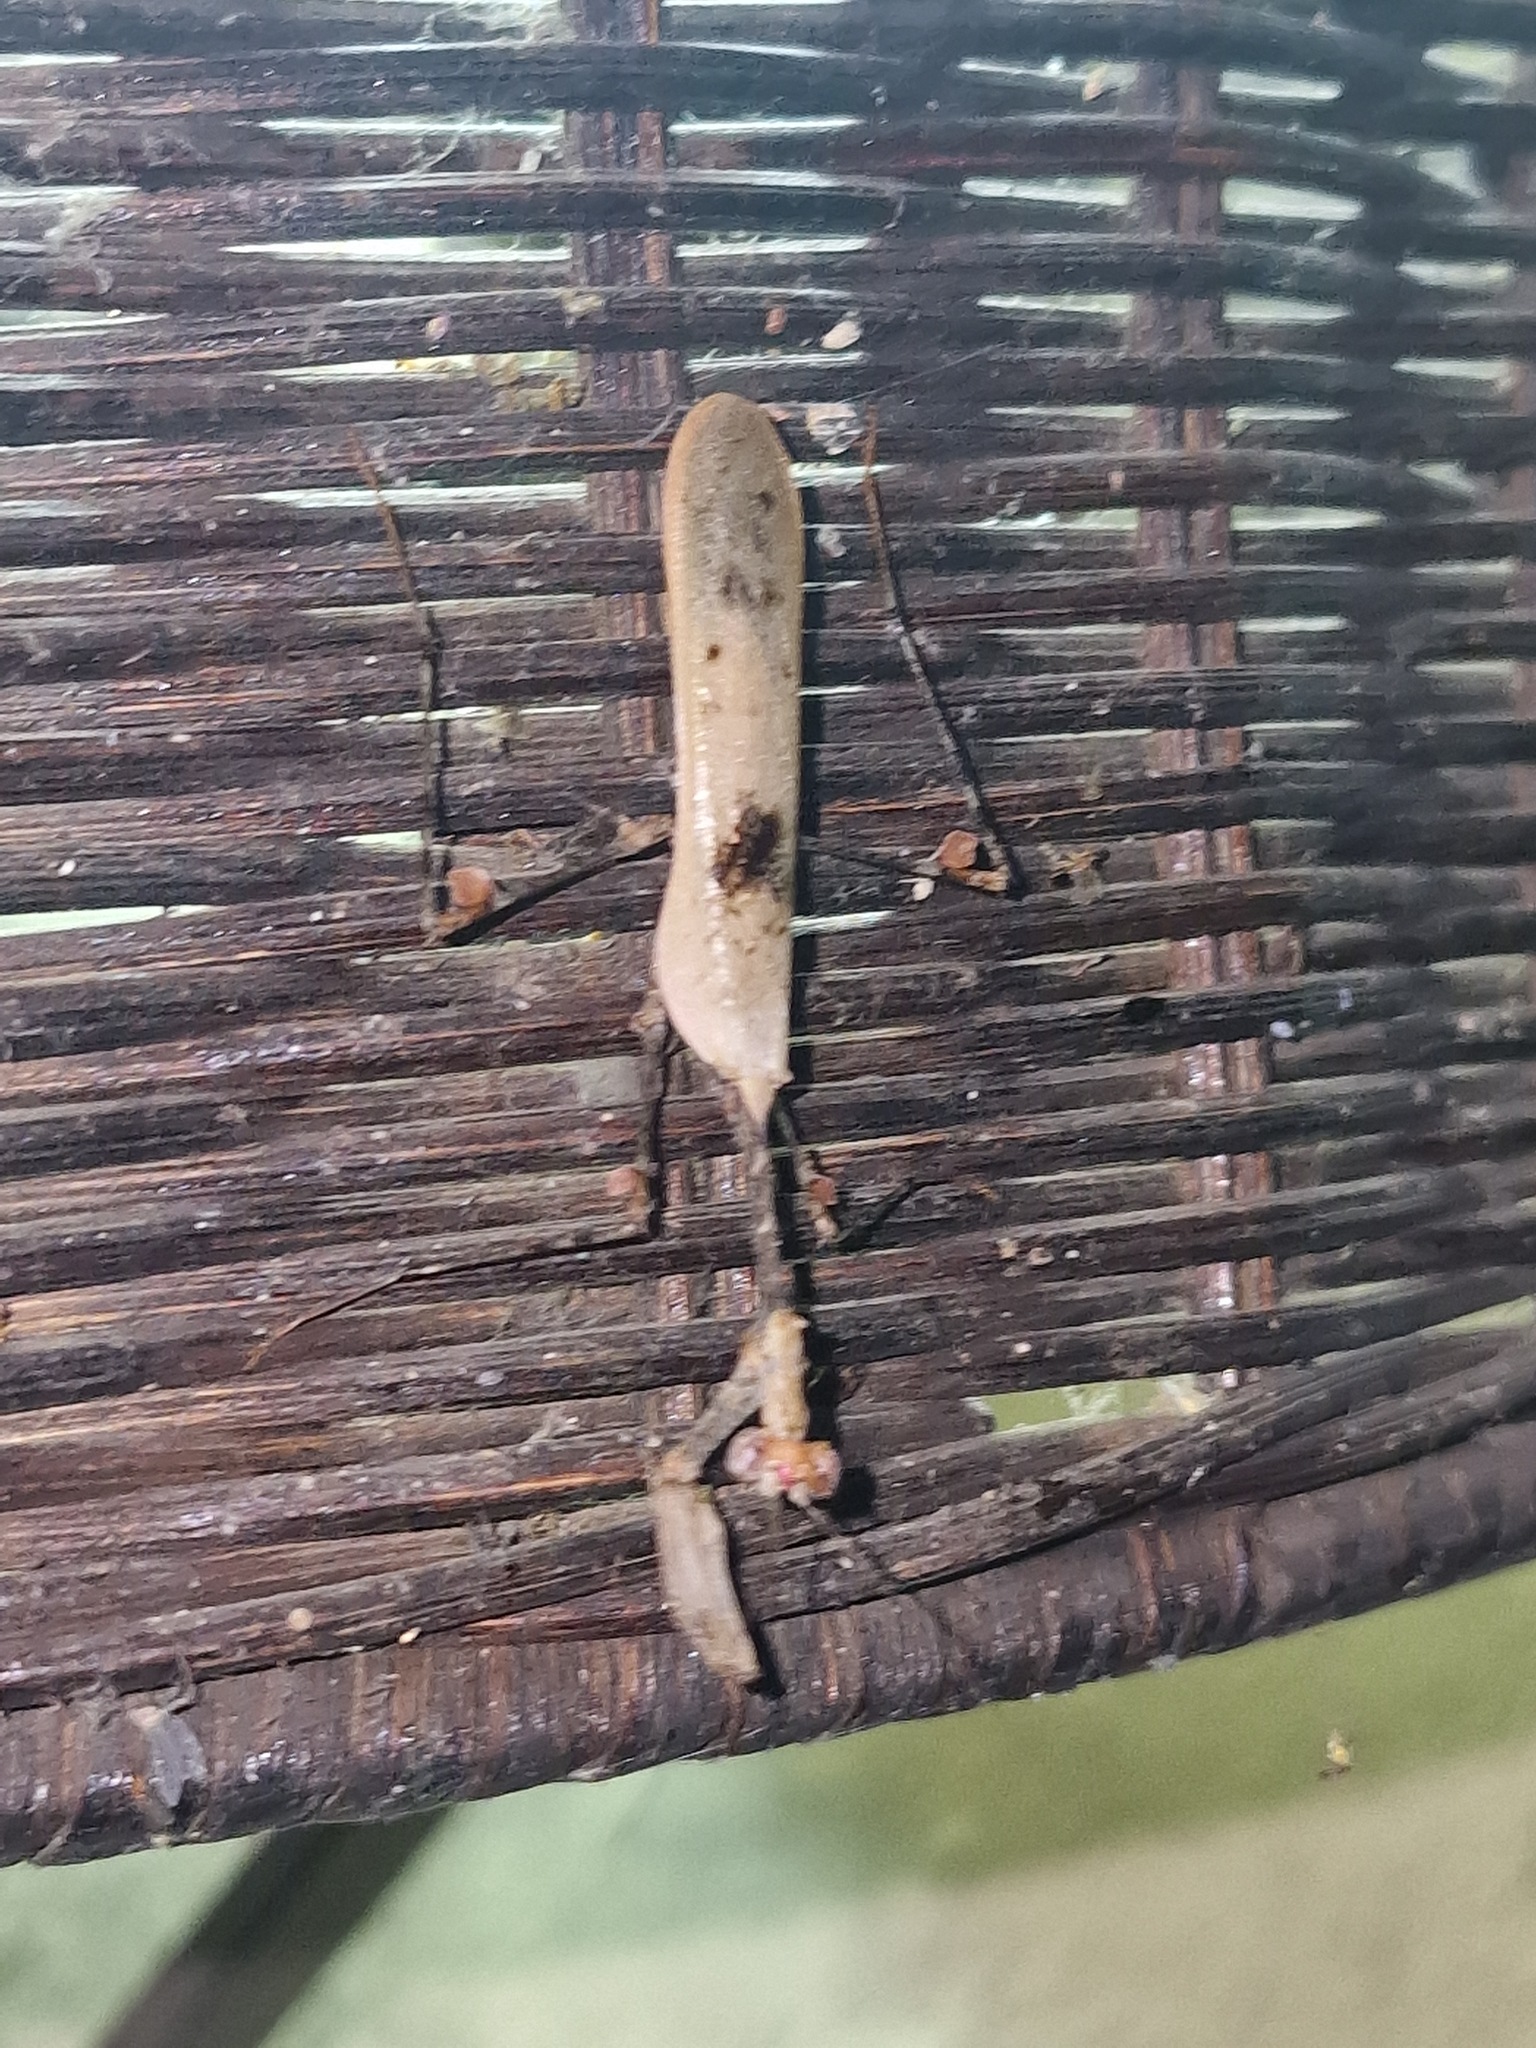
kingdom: Animalia
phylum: Arthropoda
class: Insecta
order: Mantodea
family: Hymenopodidae
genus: Sibylla
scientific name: Sibylla pretiosa
